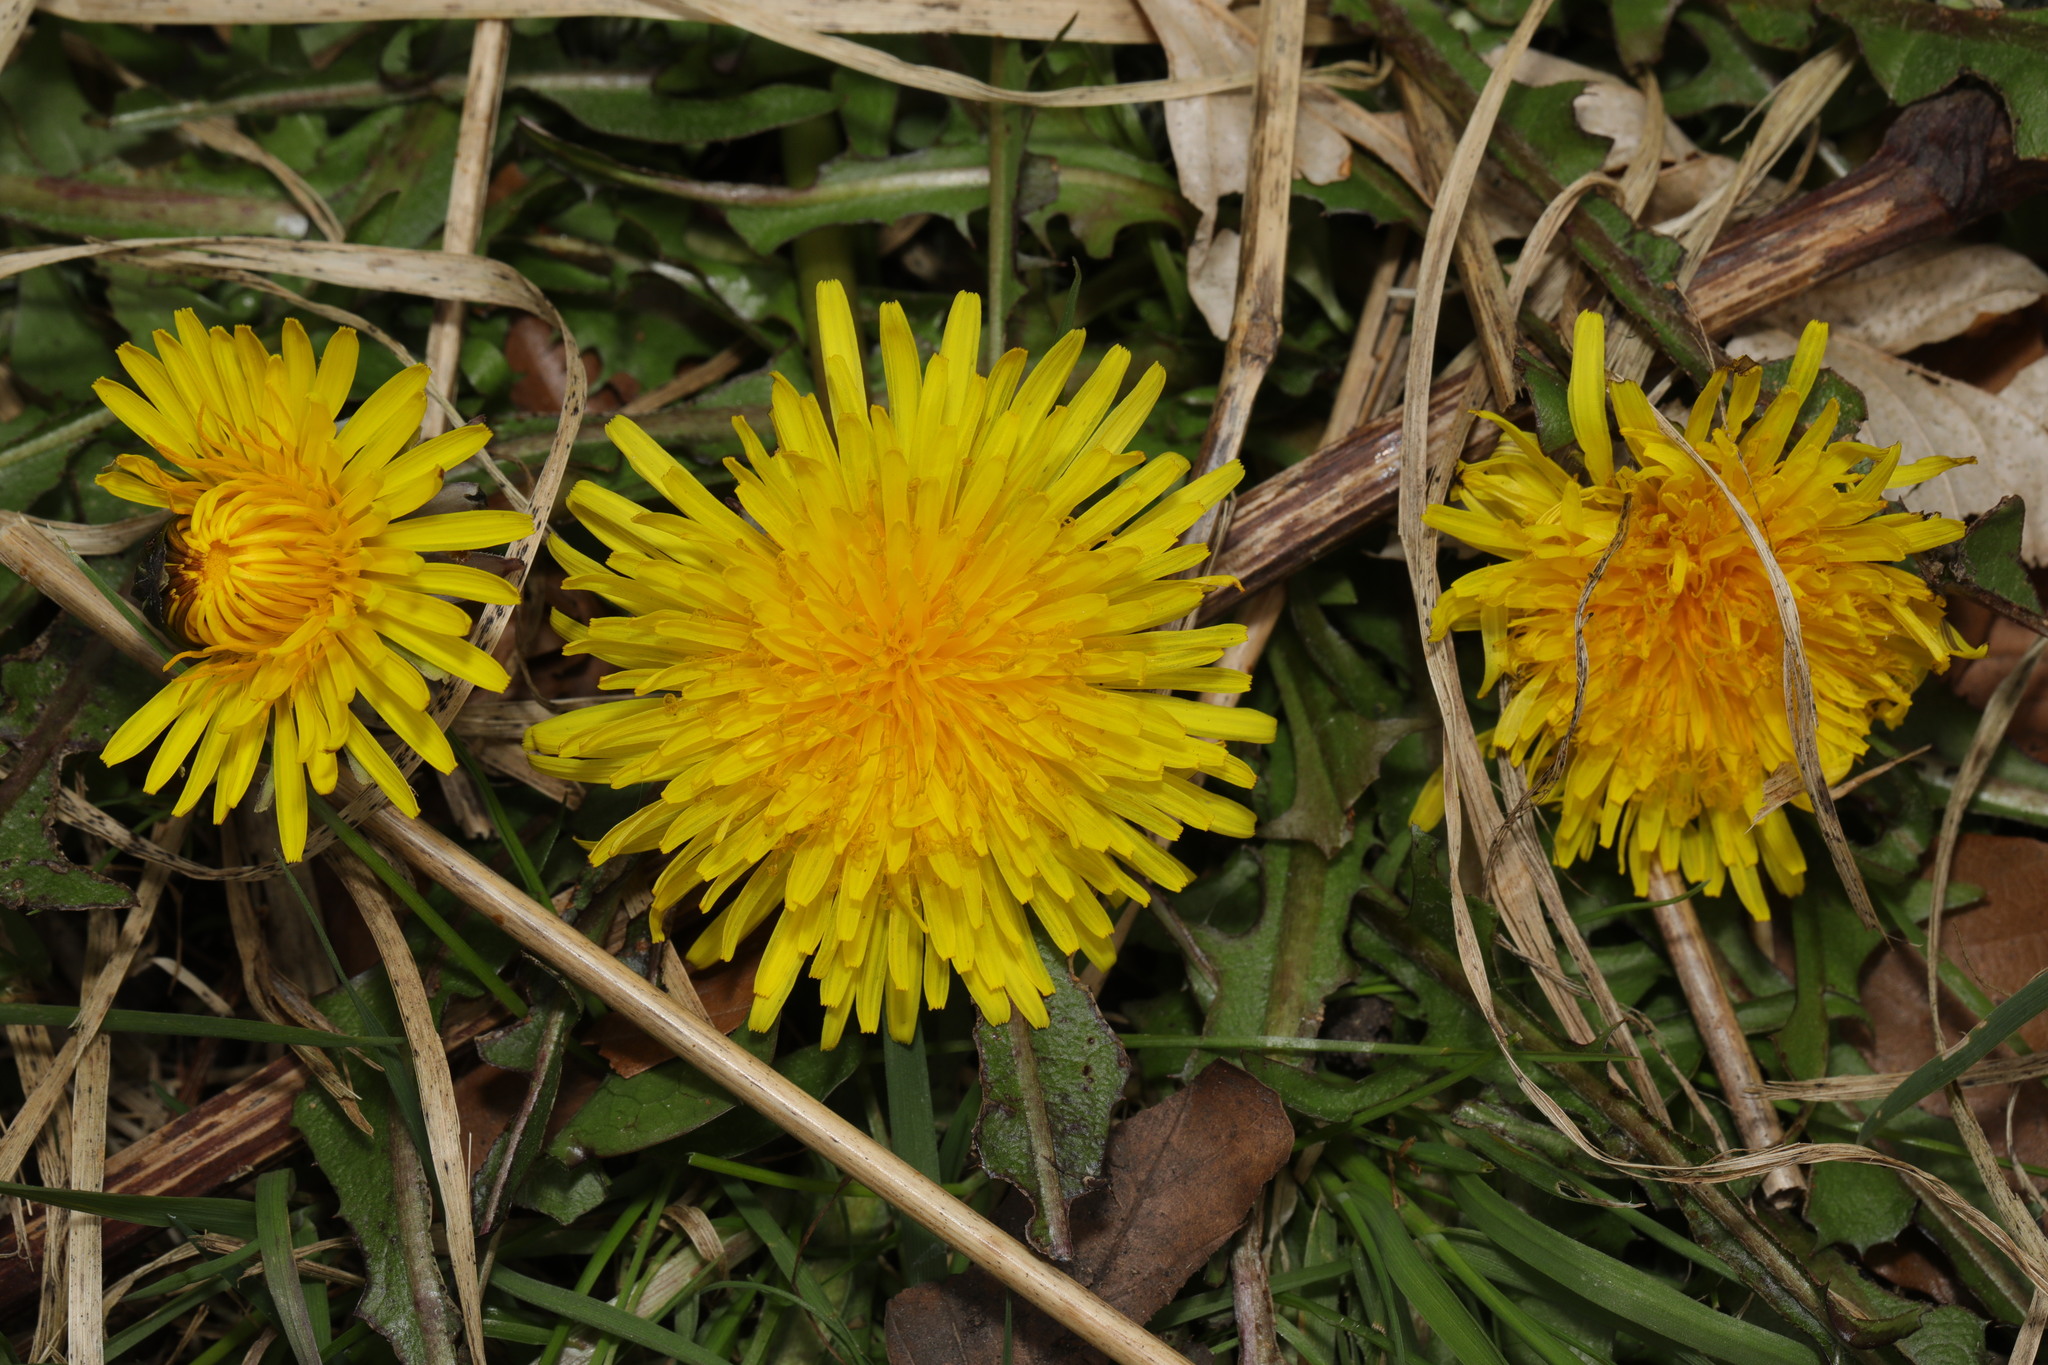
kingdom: Plantae
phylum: Tracheophyta
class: Magnoliopsida
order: Asterales
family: Asteraceae
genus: Taraxacum
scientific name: Taraxacum officinale
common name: Common dandelion
